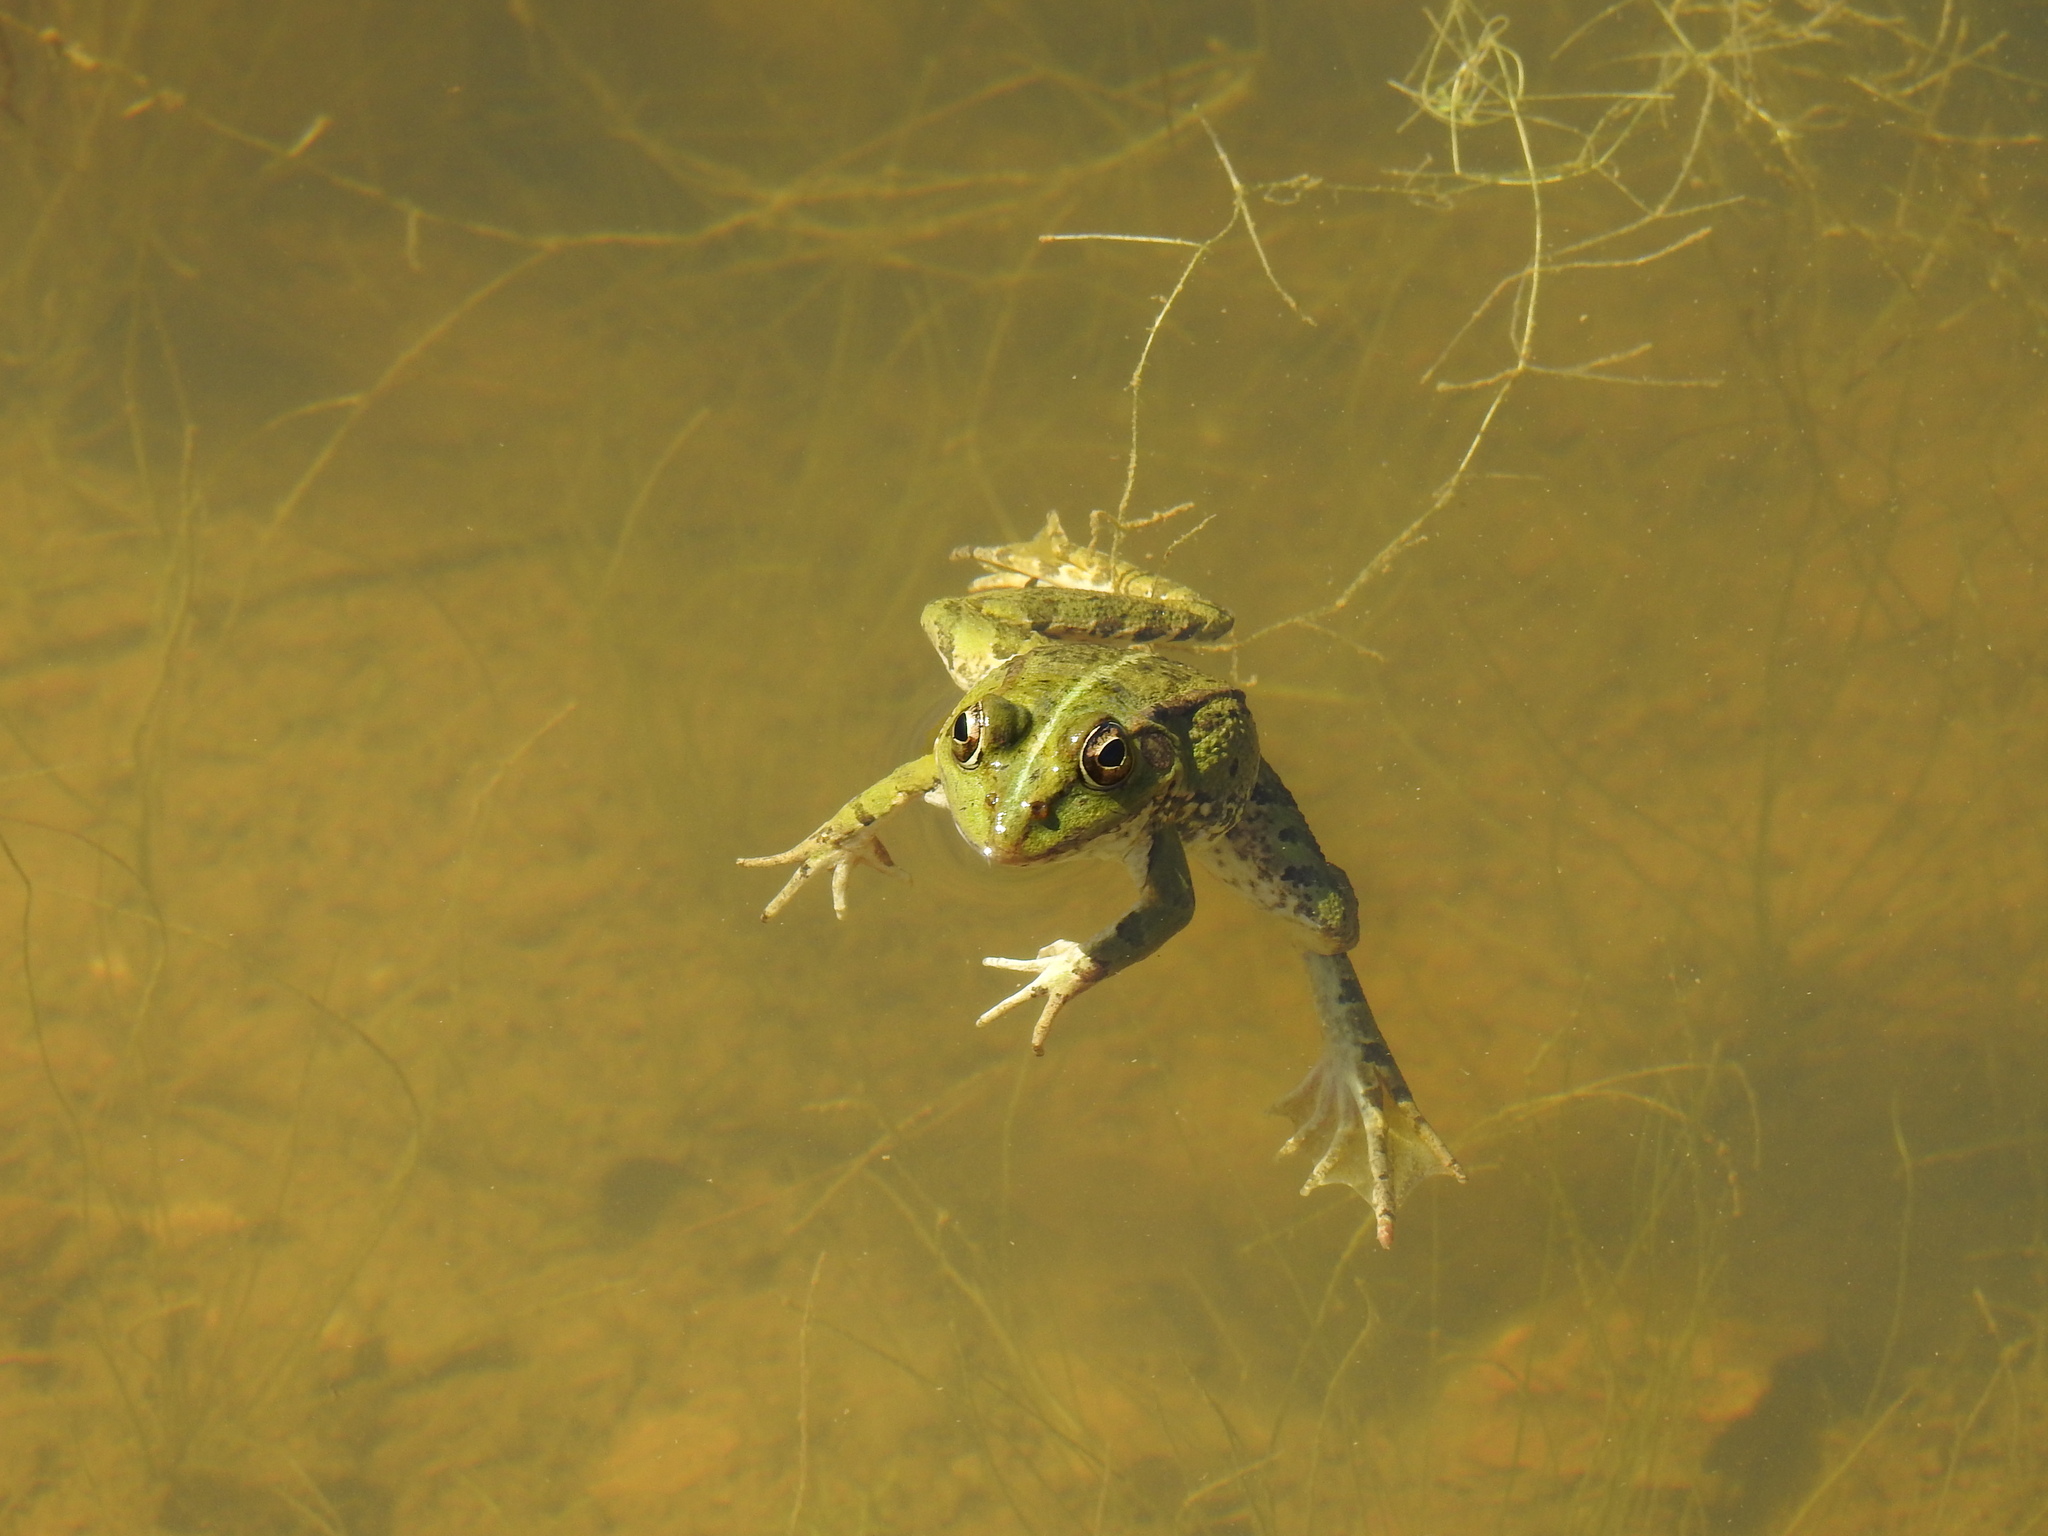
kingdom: Animalia
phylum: Chordata
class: Amphibia
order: Anura
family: Ranidae
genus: Pelophylax
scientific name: Pelophylax perezi
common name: Perez's frog
